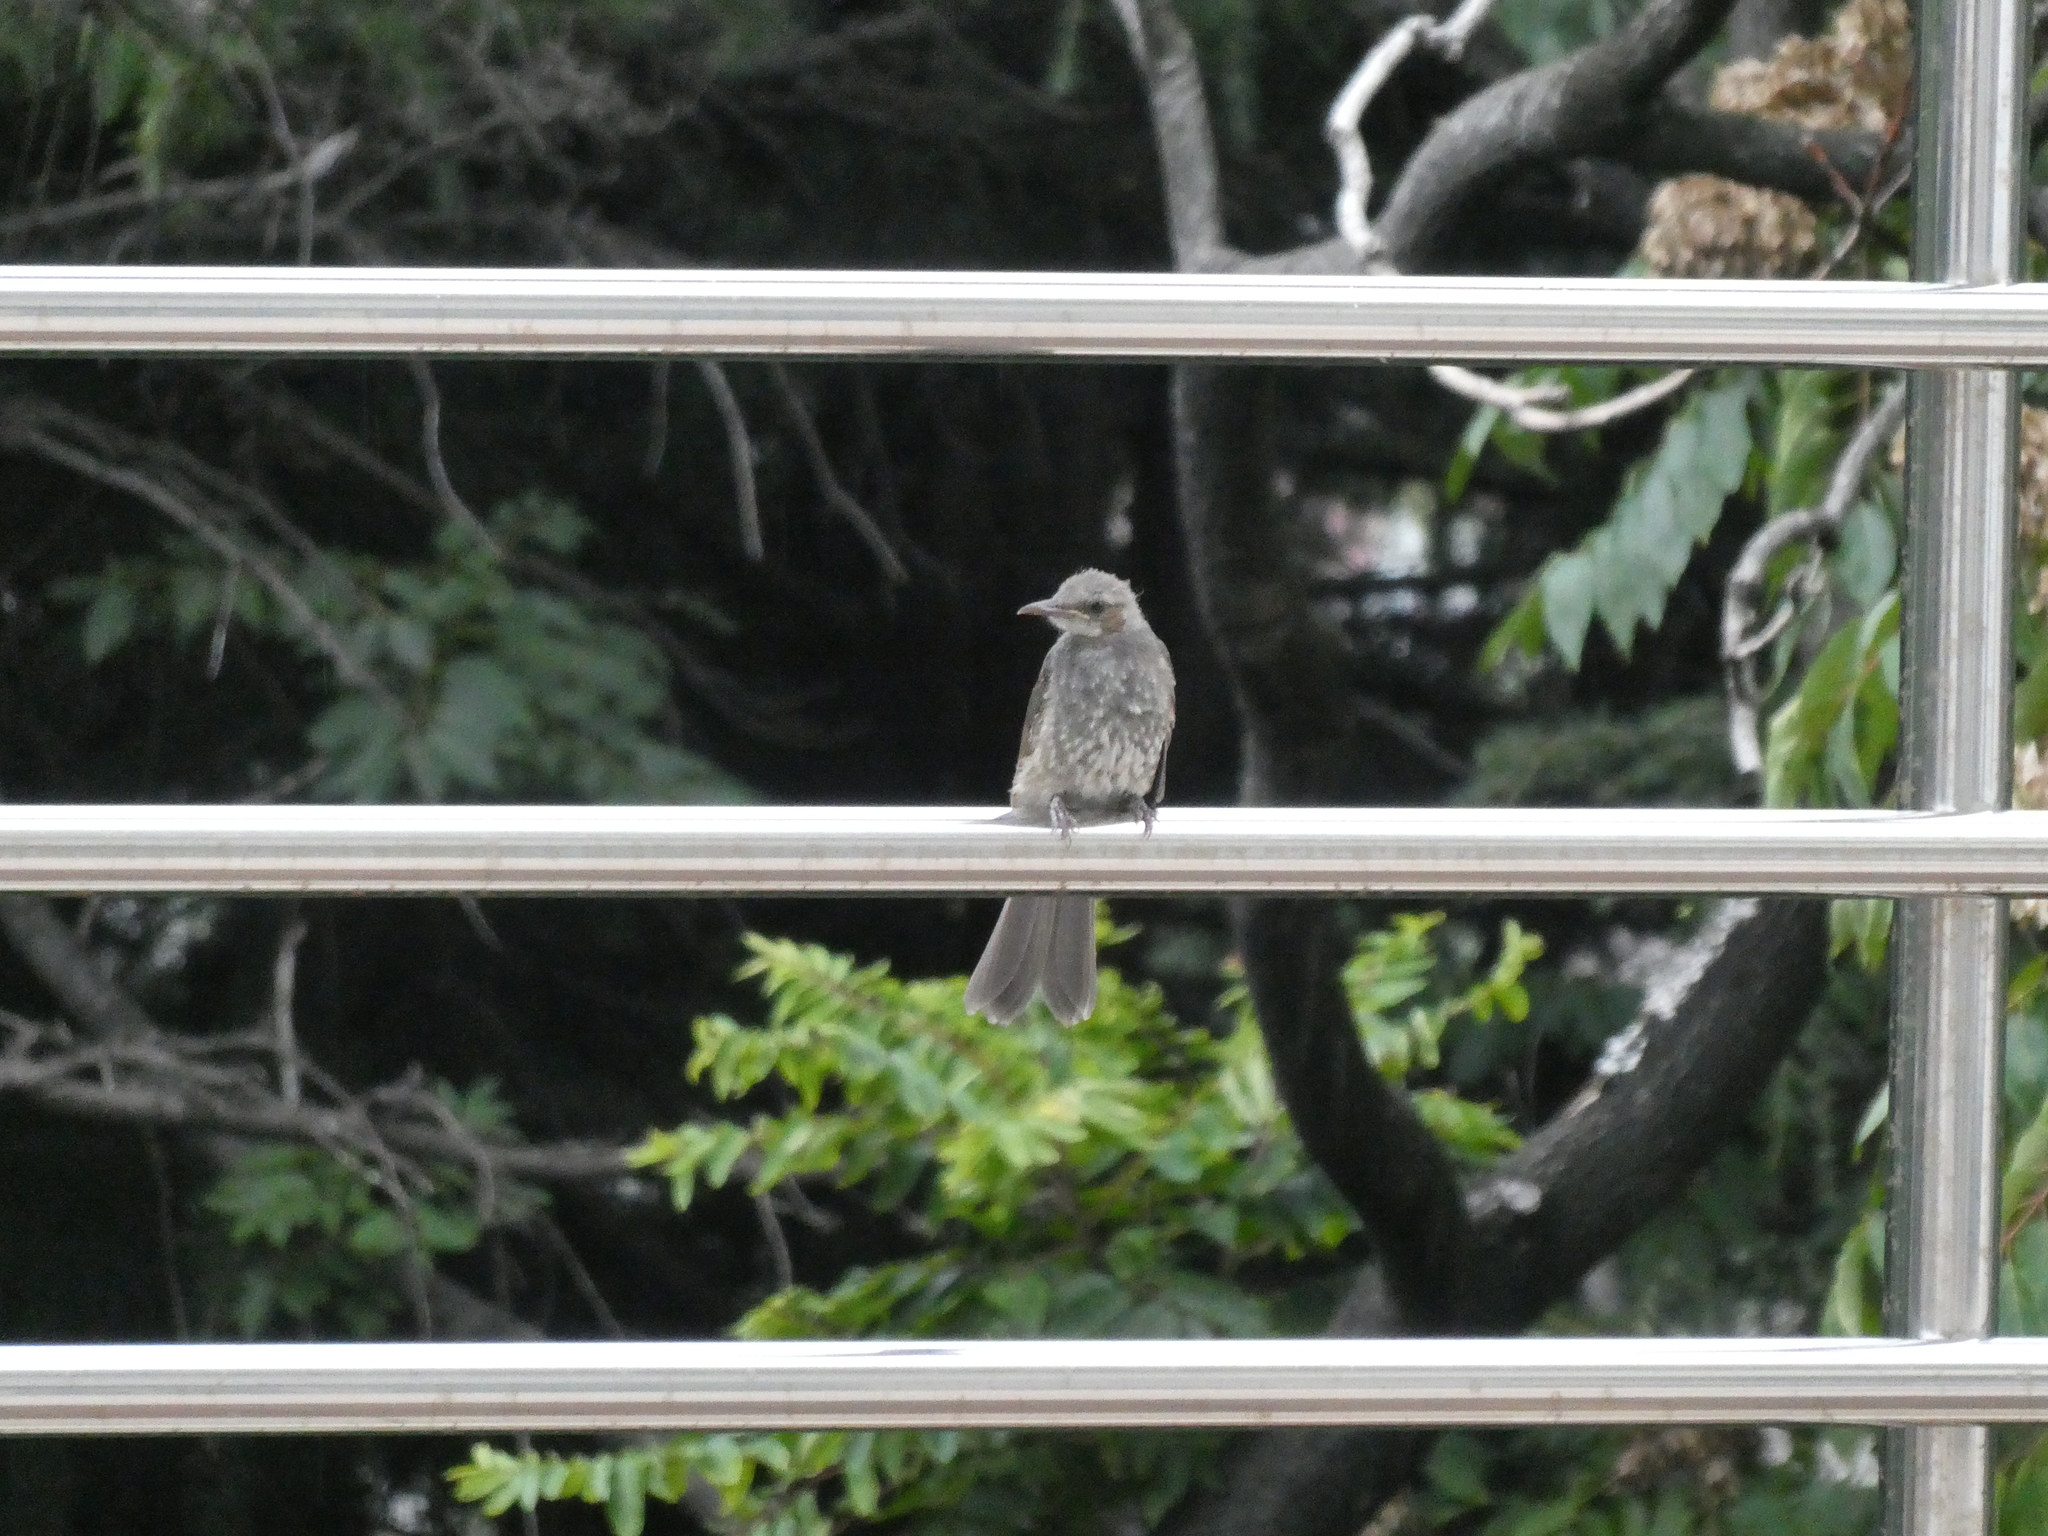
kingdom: Animalia
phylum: Chordata
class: Aves
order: Passeriformes
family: Pycnonotidae
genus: Hypsipetes
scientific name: Hypsipetes amaurotis
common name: Brown-eared bulbul
